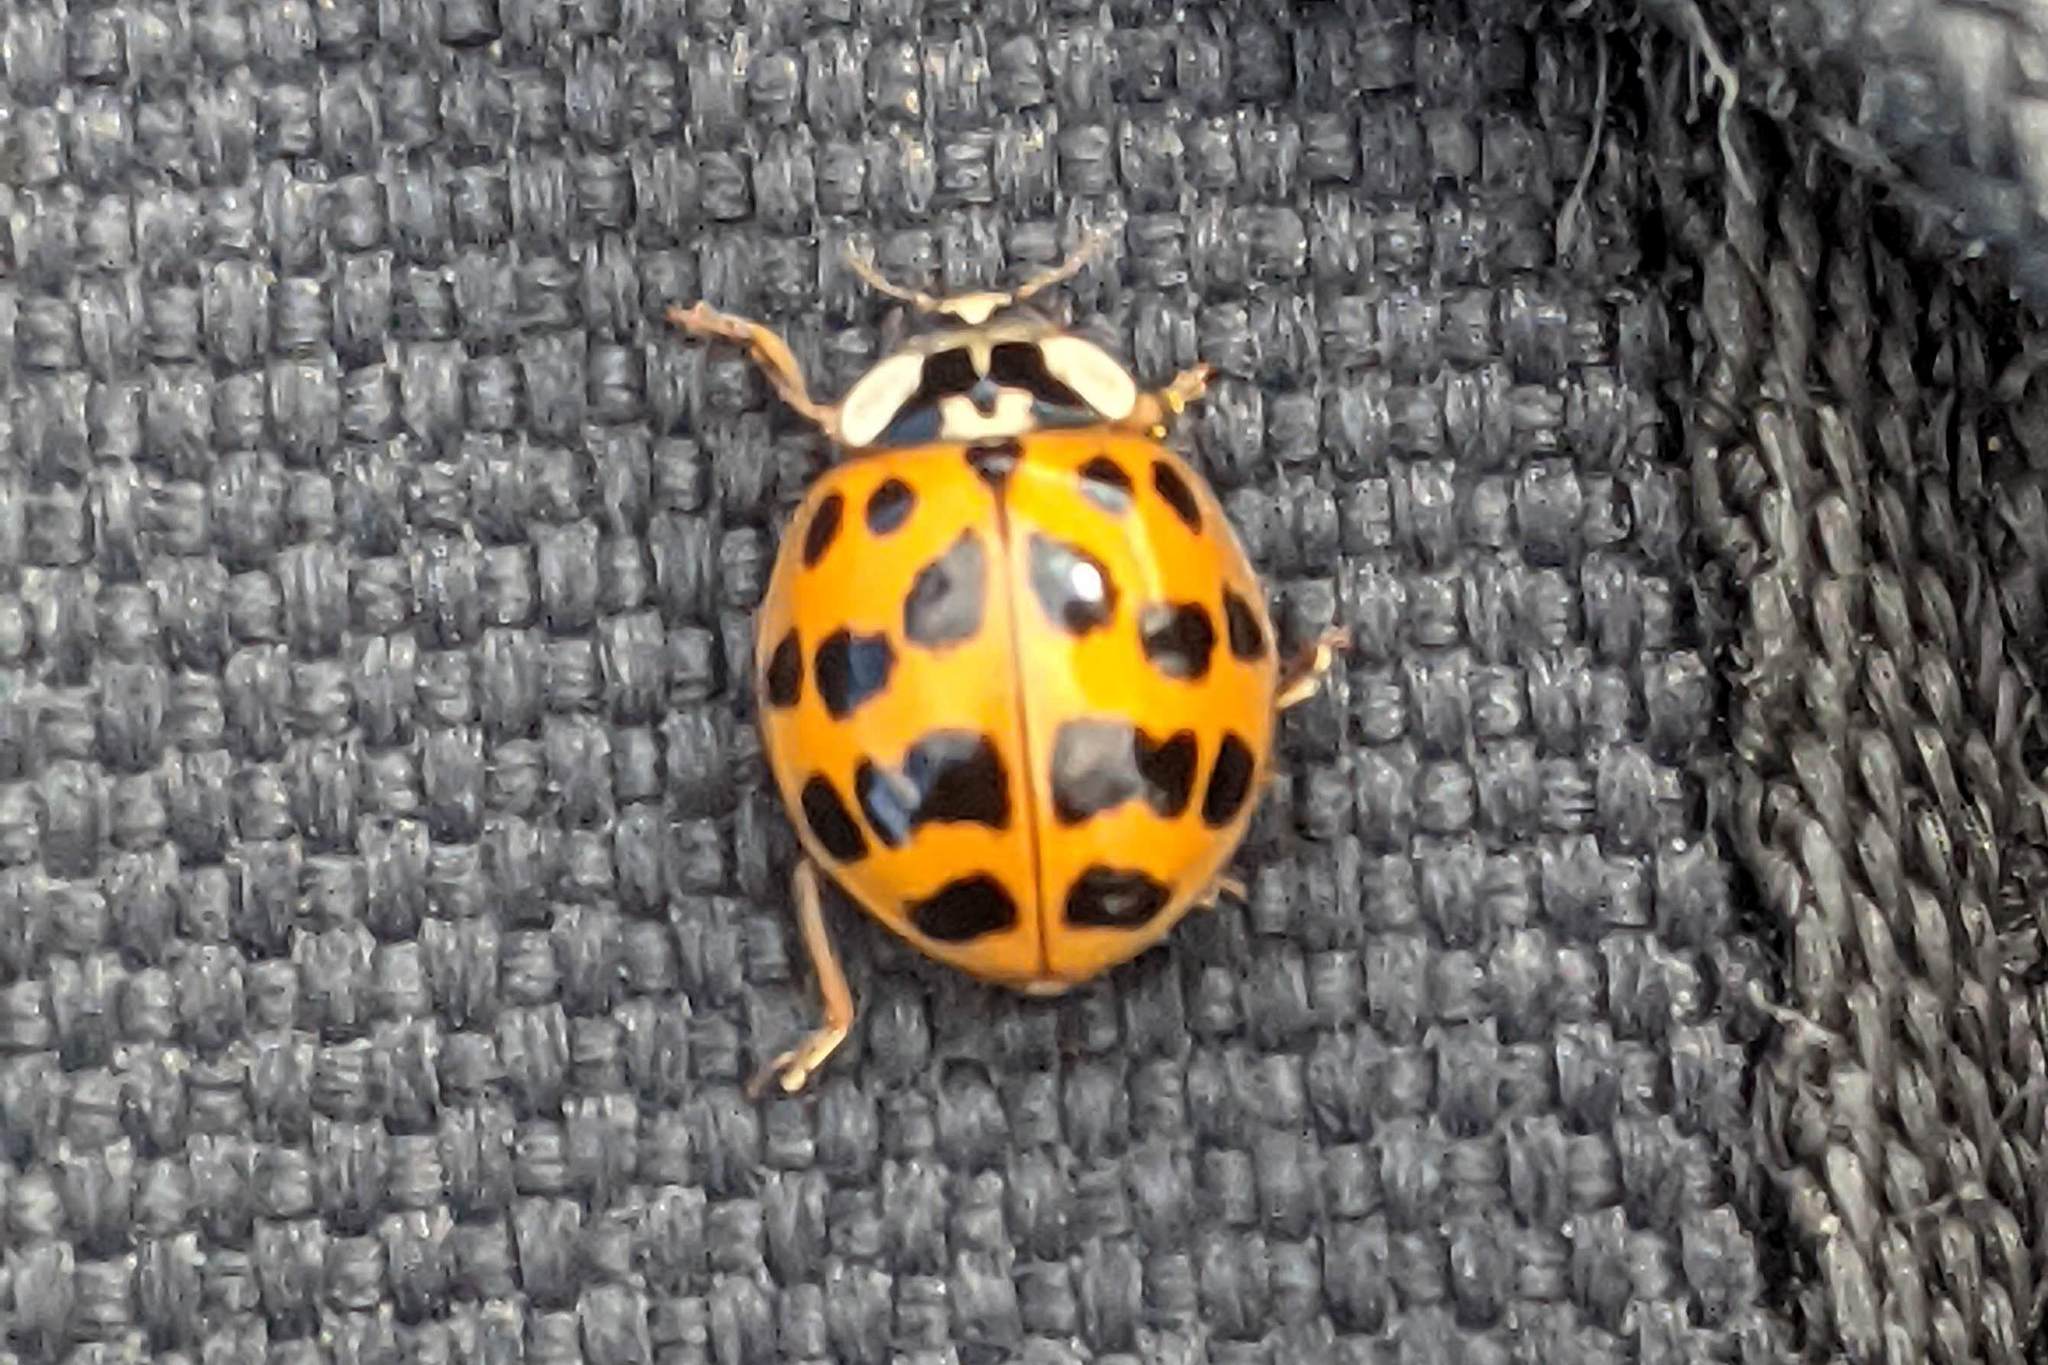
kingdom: Animalia
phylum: Arthropoda
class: Insecta
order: Coleoptera
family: Coccinellidae
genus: Harmonia
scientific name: Harmonia axyridis
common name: Harlequin ladybird
